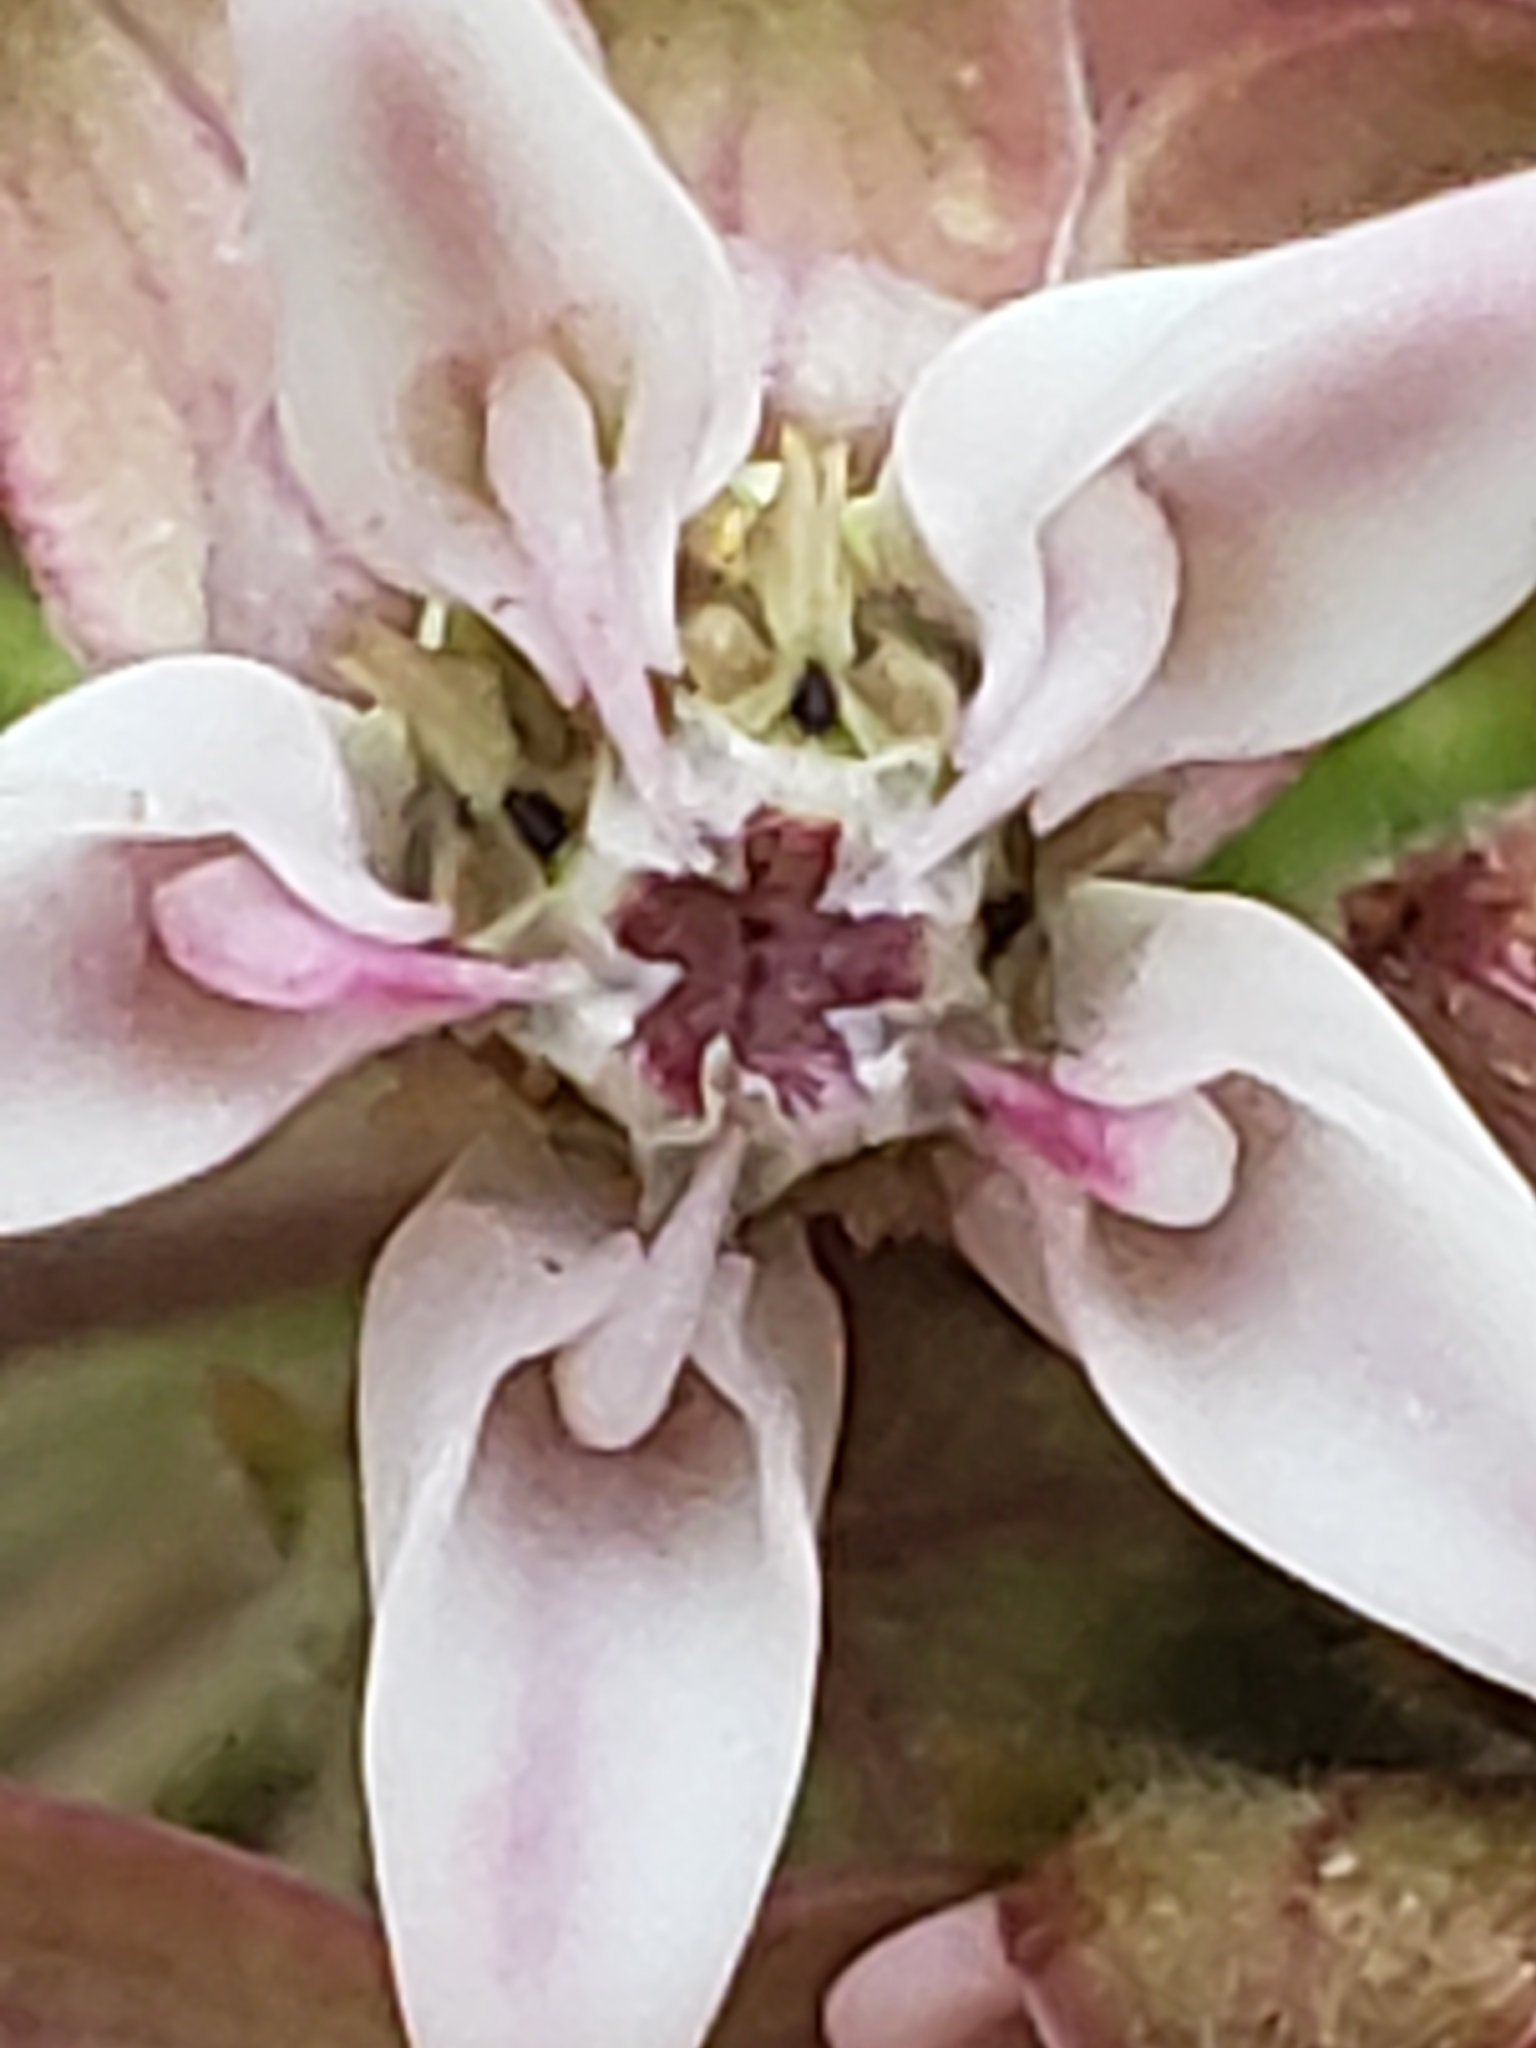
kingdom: Plantae
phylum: Tracheophyta
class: Magnoliopsida
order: Gentianales
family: Apocynaceae
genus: Asclepias
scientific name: Asclepias syriaca
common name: Common milkweed
